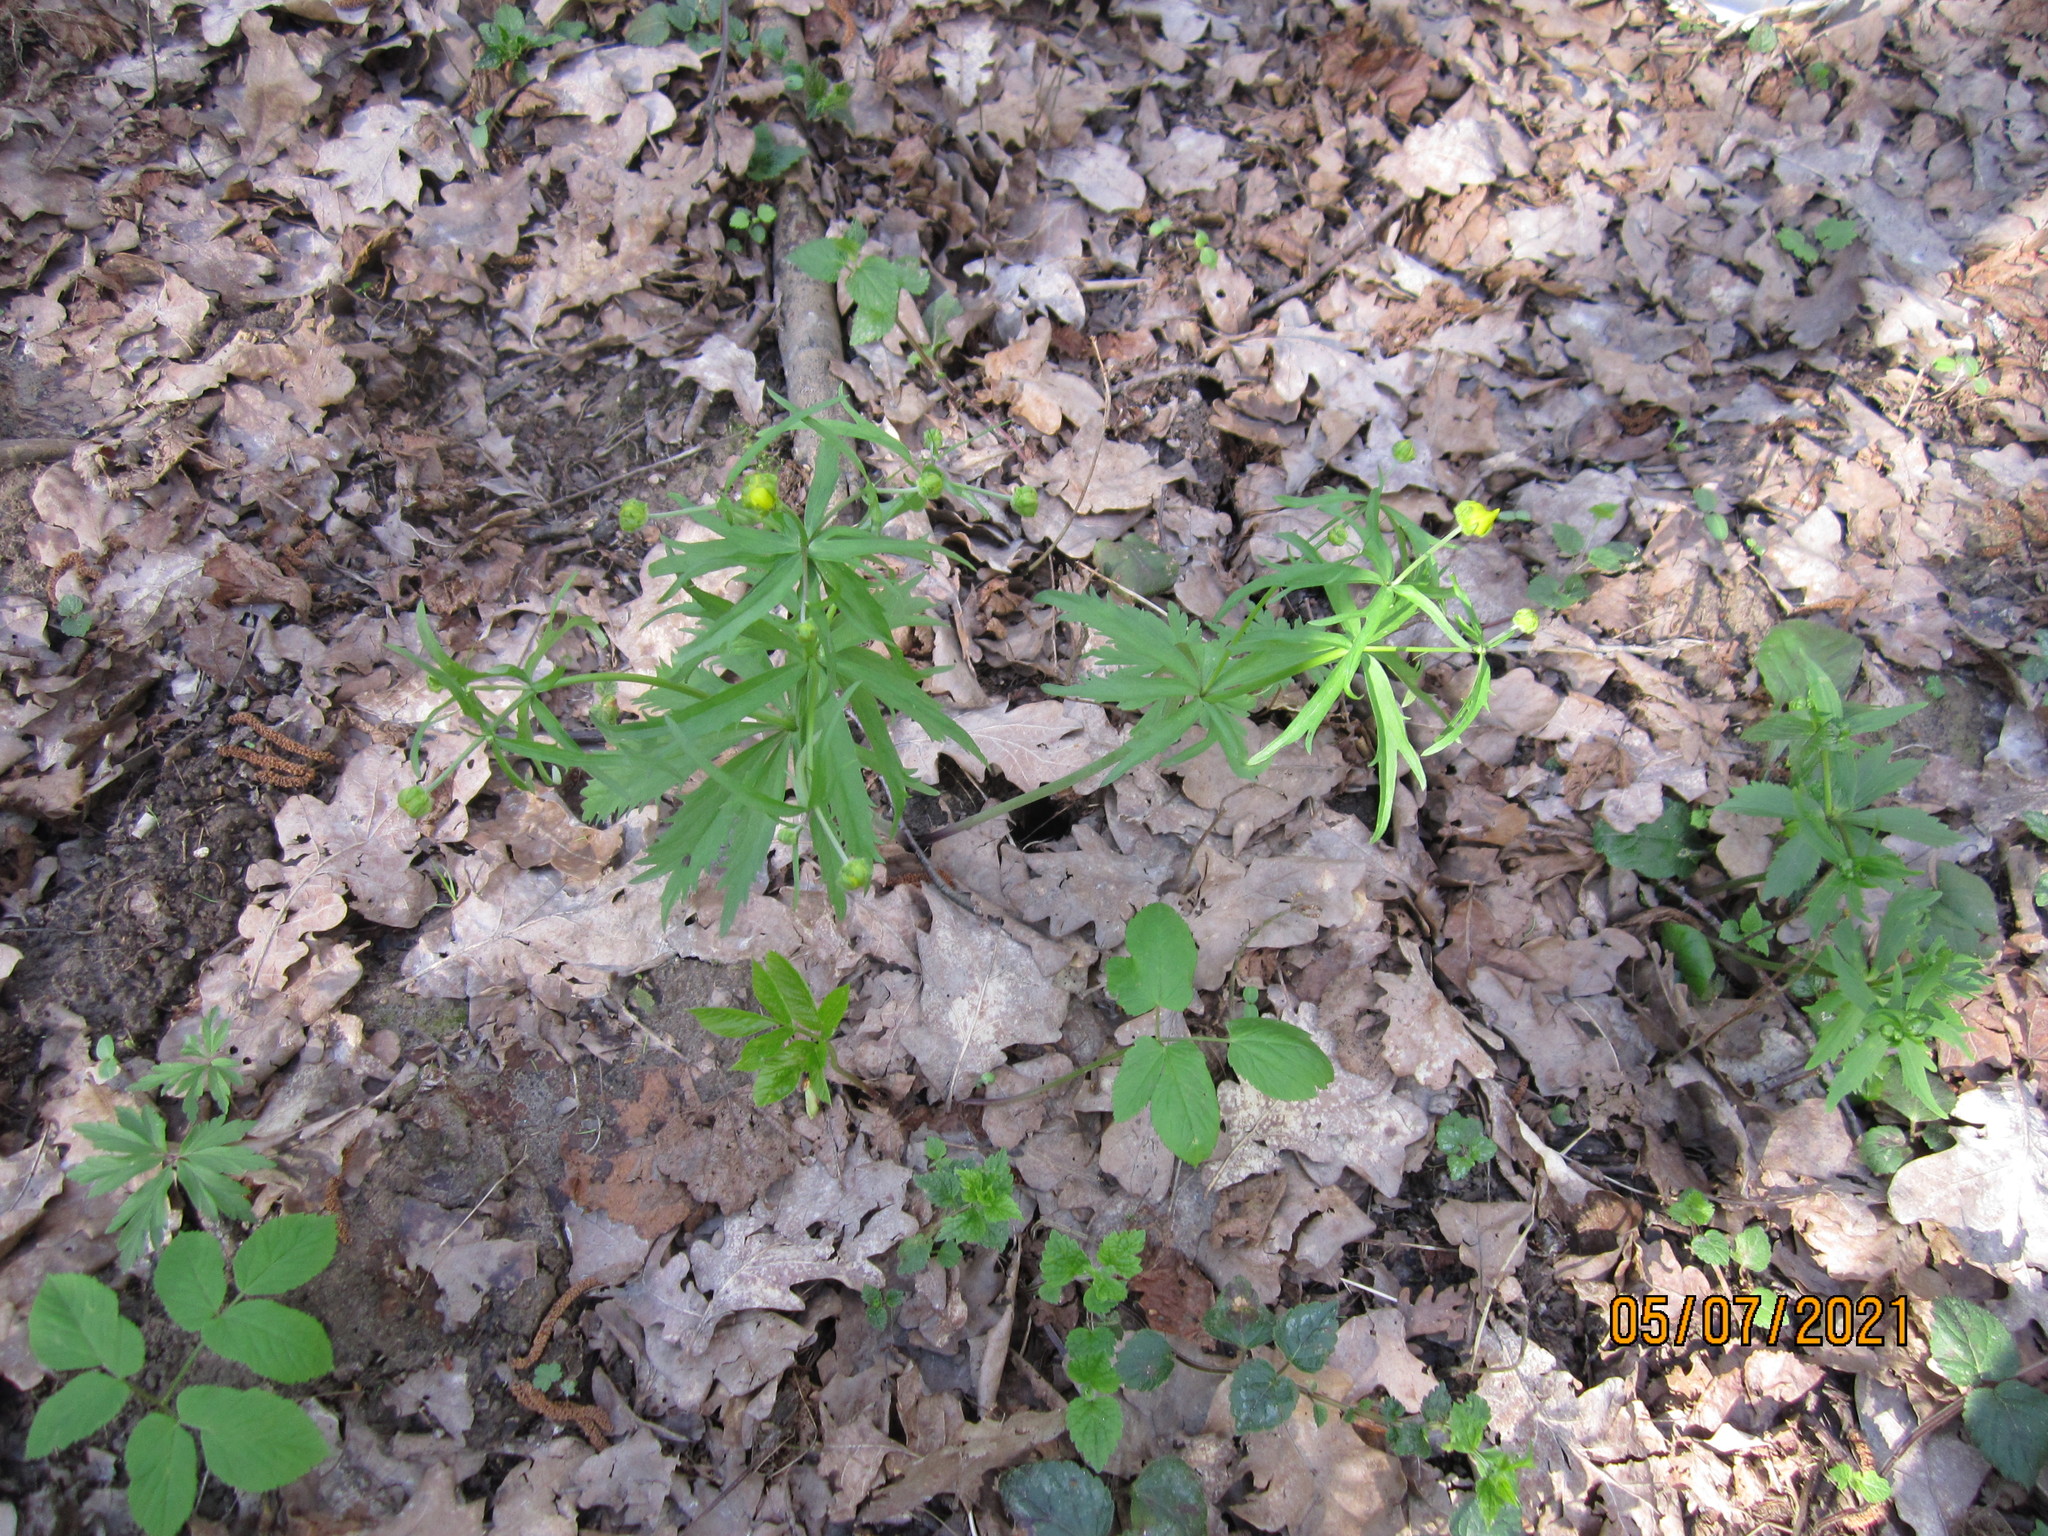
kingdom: Plantae
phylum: Tracheophyta
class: Magnoliopsida
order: Ranunculales
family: Ranunculaceae
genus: Ranunculus
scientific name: Ranunculus cassubicus
